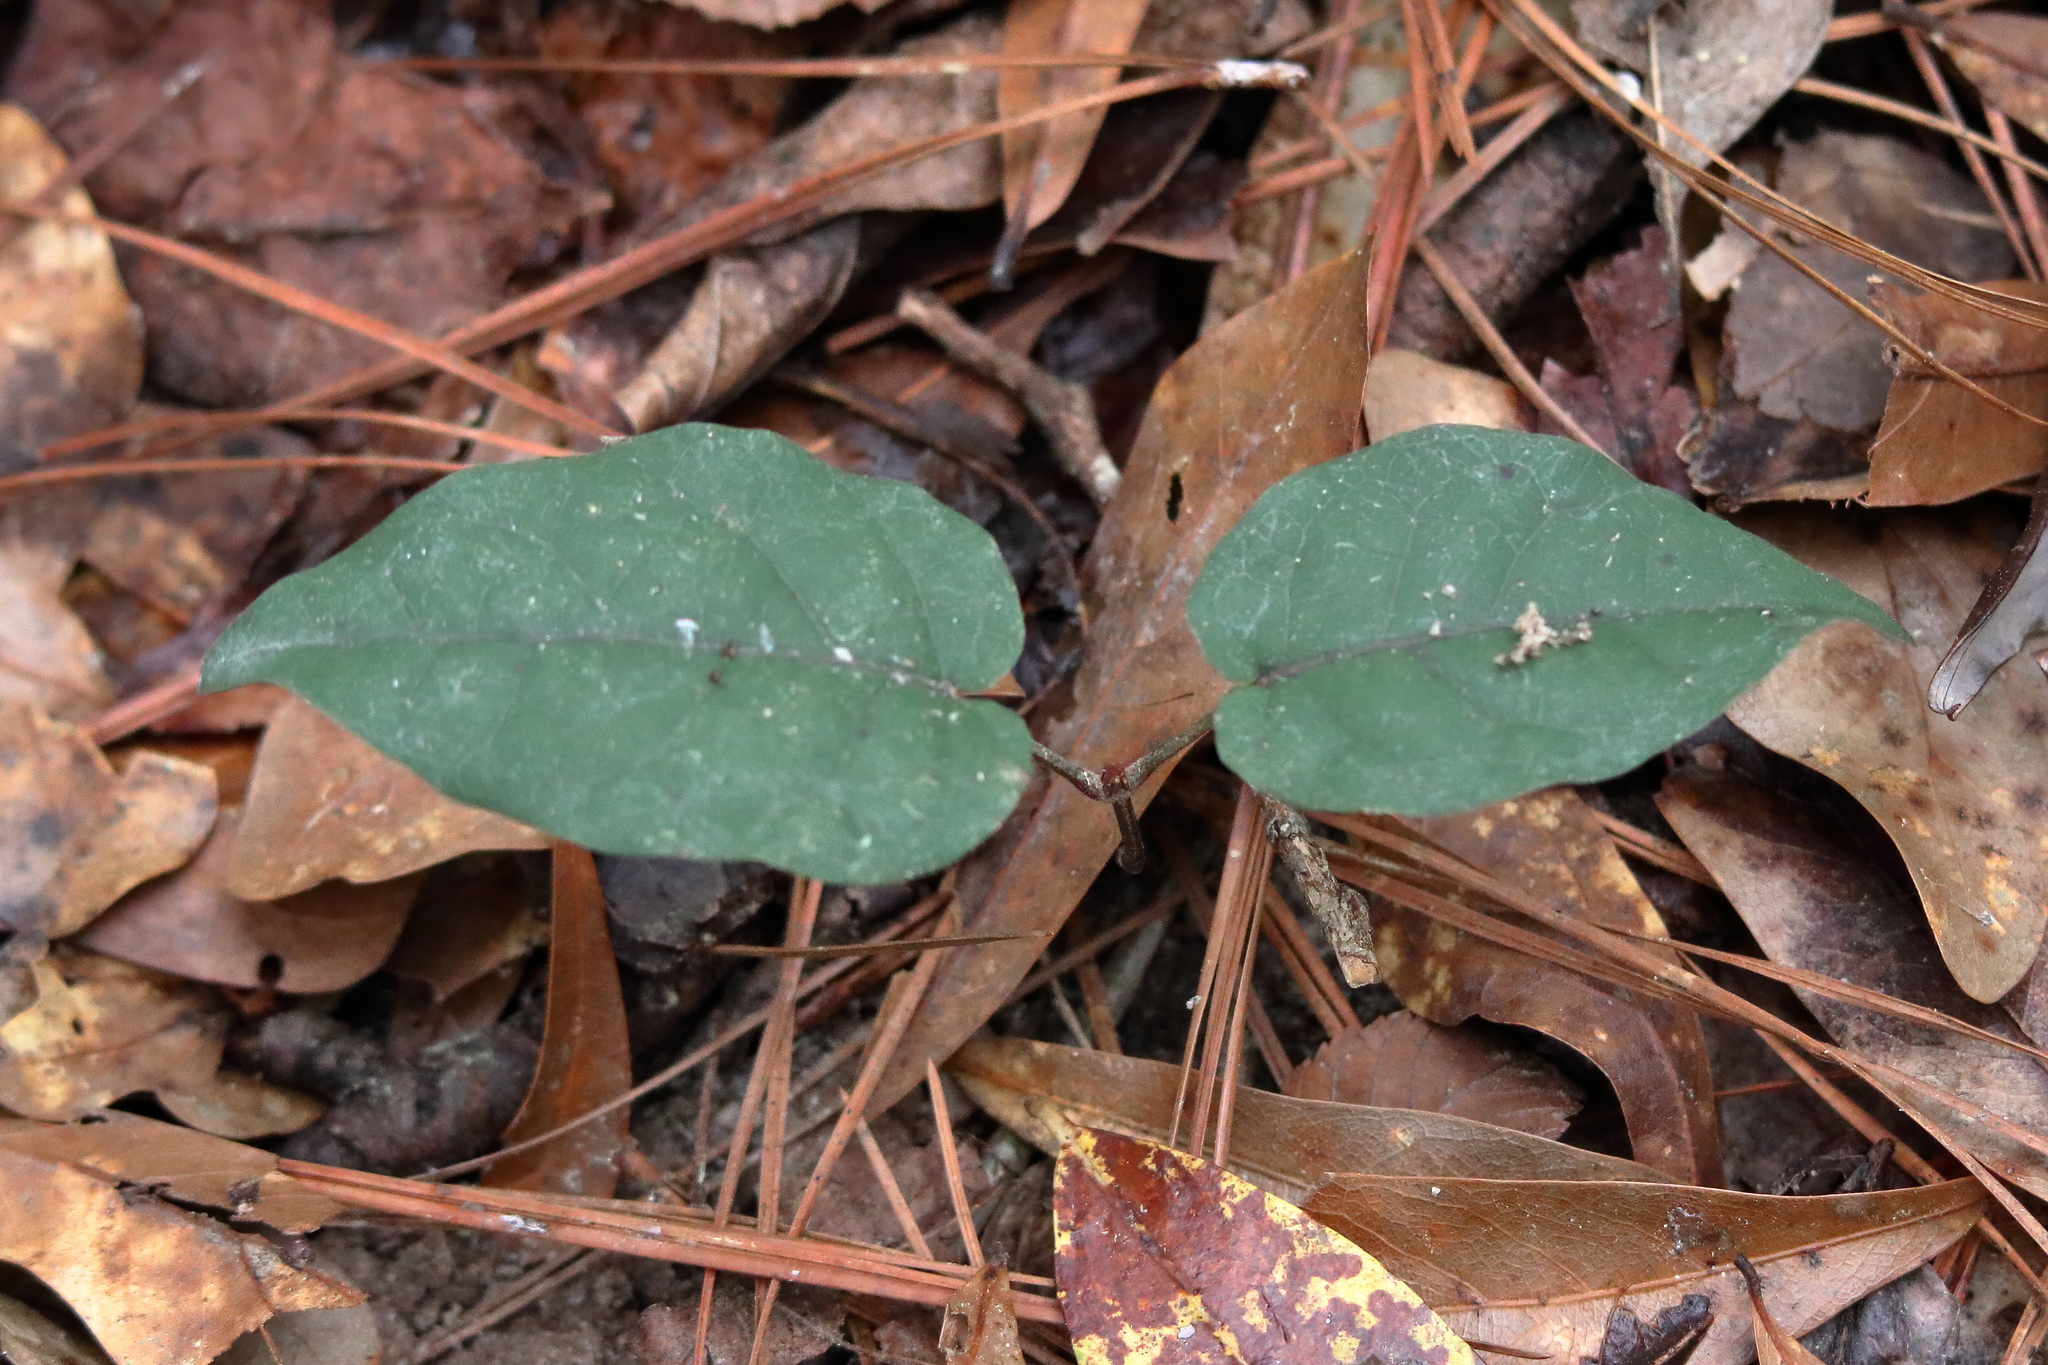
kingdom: Plantae
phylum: Tracheophyta
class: Magnoliopsida
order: Lamiales
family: Bignoniaceae
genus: Bignonia
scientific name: Bignonia capreolata
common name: Crossvine
